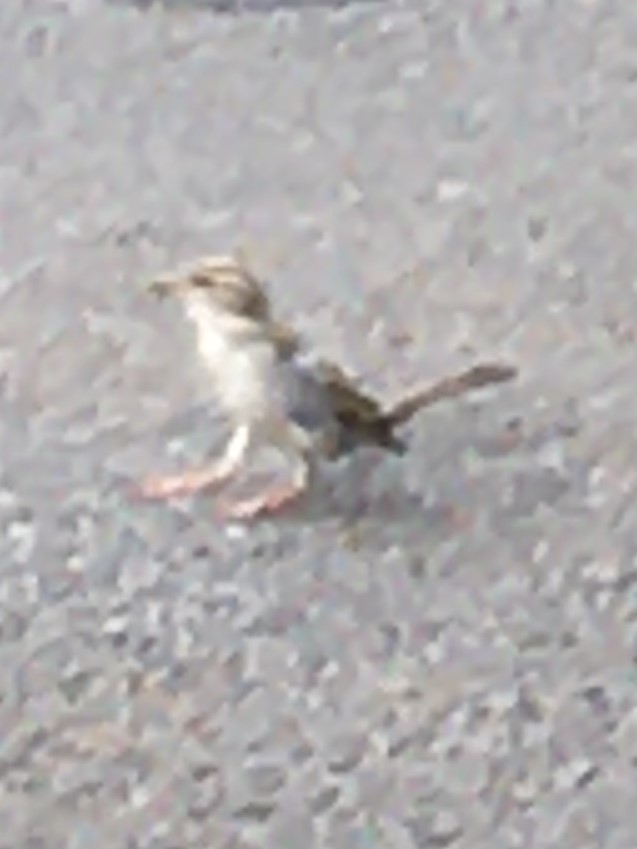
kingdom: Animalia
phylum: Chordata
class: Aves
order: Passeriformes
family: Passeridae
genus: Passer
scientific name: Passer domesticus
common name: House sparrow
